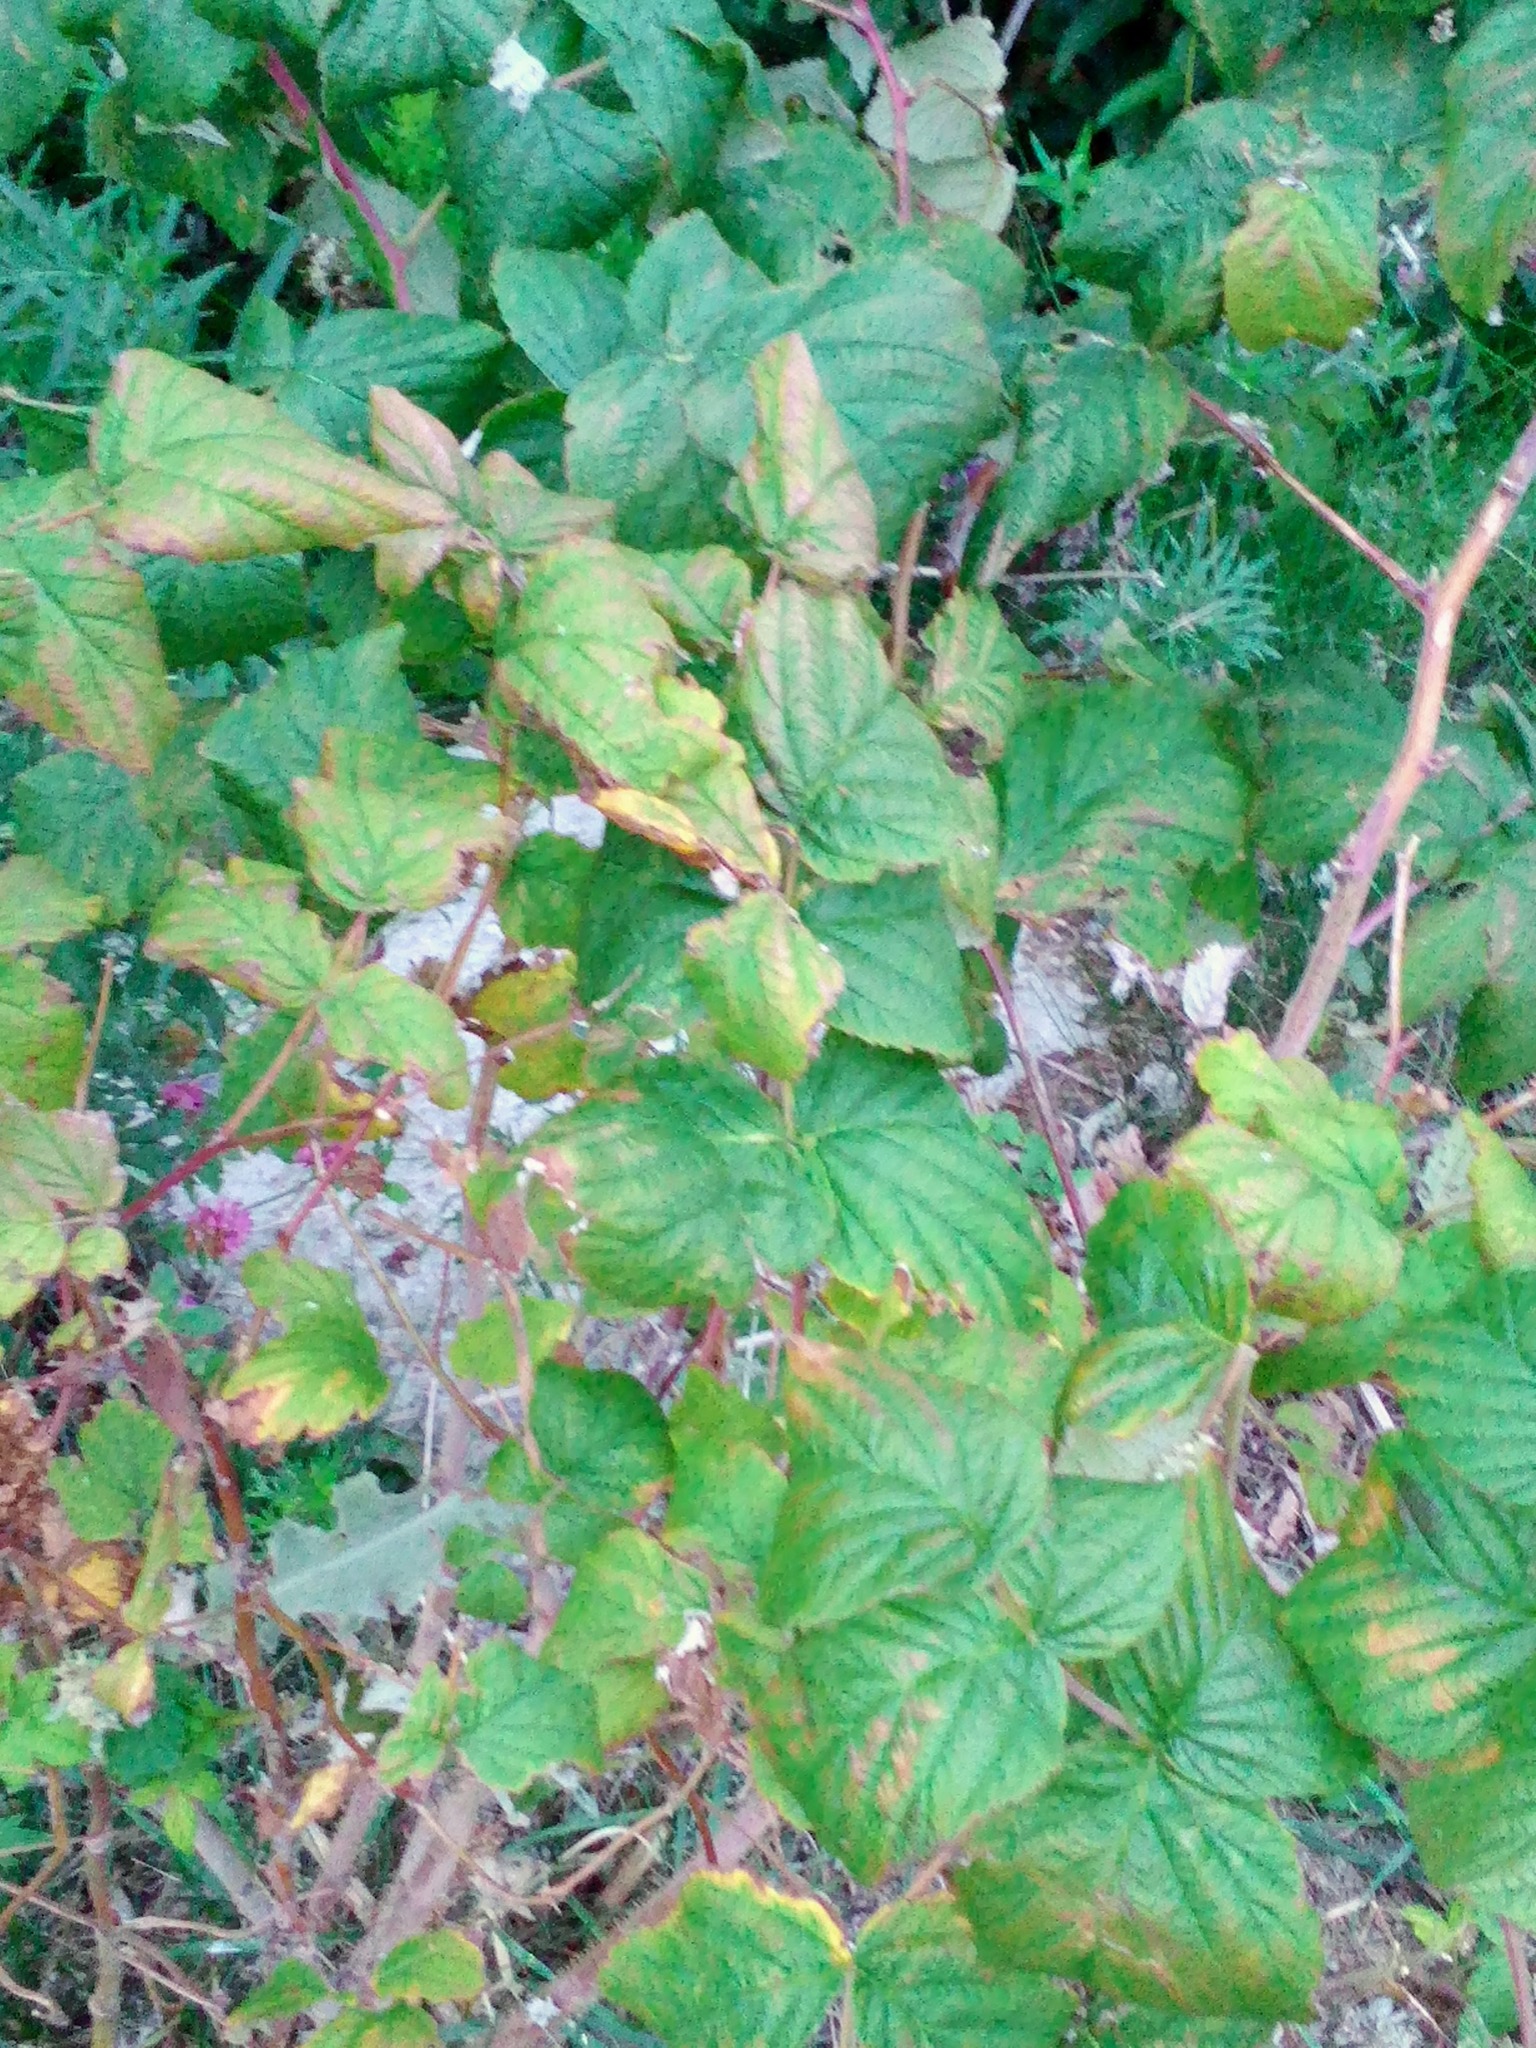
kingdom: Plantae
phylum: Tracheophyta
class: Magnoliopsida
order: Rosales
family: Rosaceae
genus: Rubus
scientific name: Rubus idaeus
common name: Raspberry
